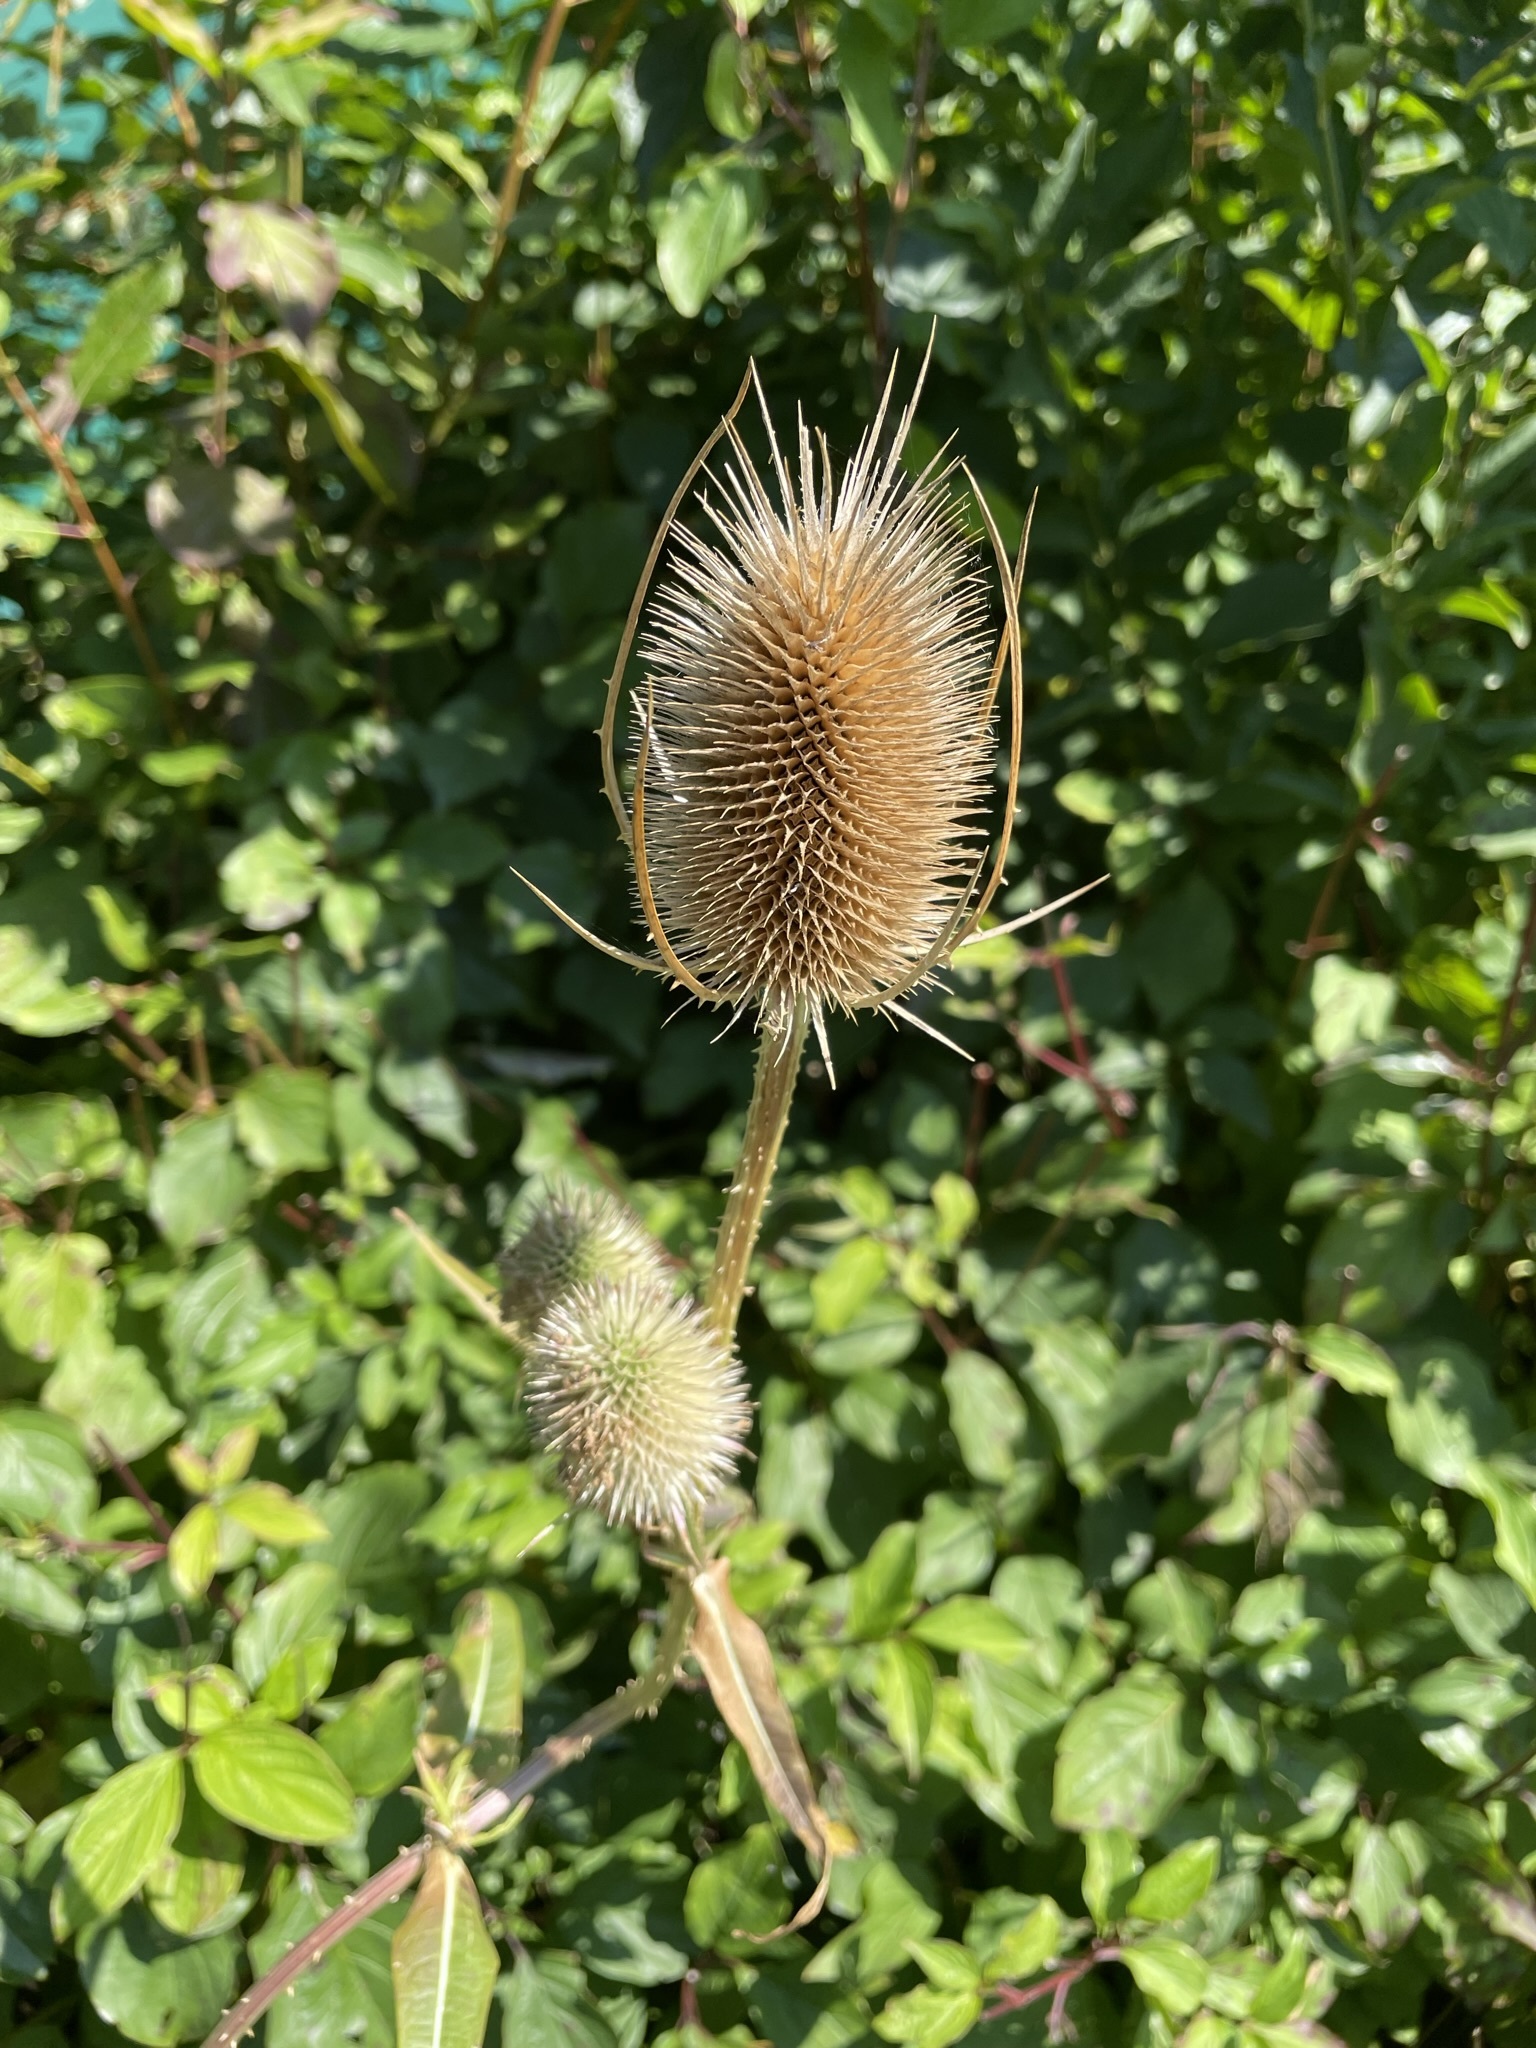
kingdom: Plantae
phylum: Tracheophyta
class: Magnoliopsida
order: Dipsacales
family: Caprifoliaceae
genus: Dipsacus
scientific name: Dipsacus fullonum
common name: Teasel
